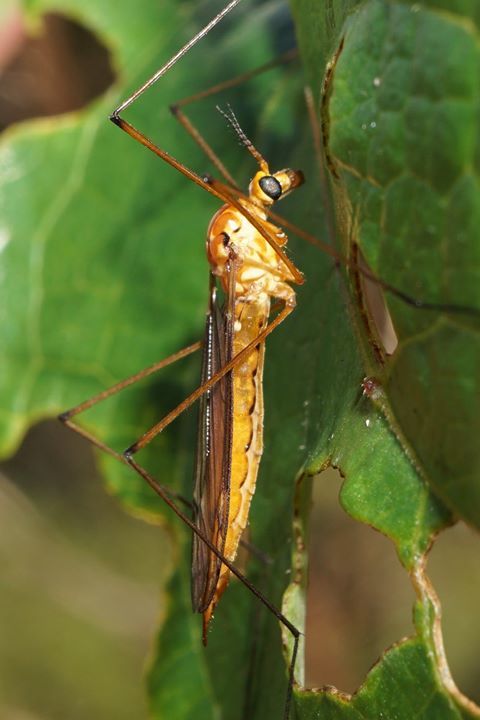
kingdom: Animalia
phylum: Arthropoda
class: Insecta
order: Diptera
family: Tipulidae
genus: Nephrotoma
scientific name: Nephrotoma suturalis
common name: Cranefly
